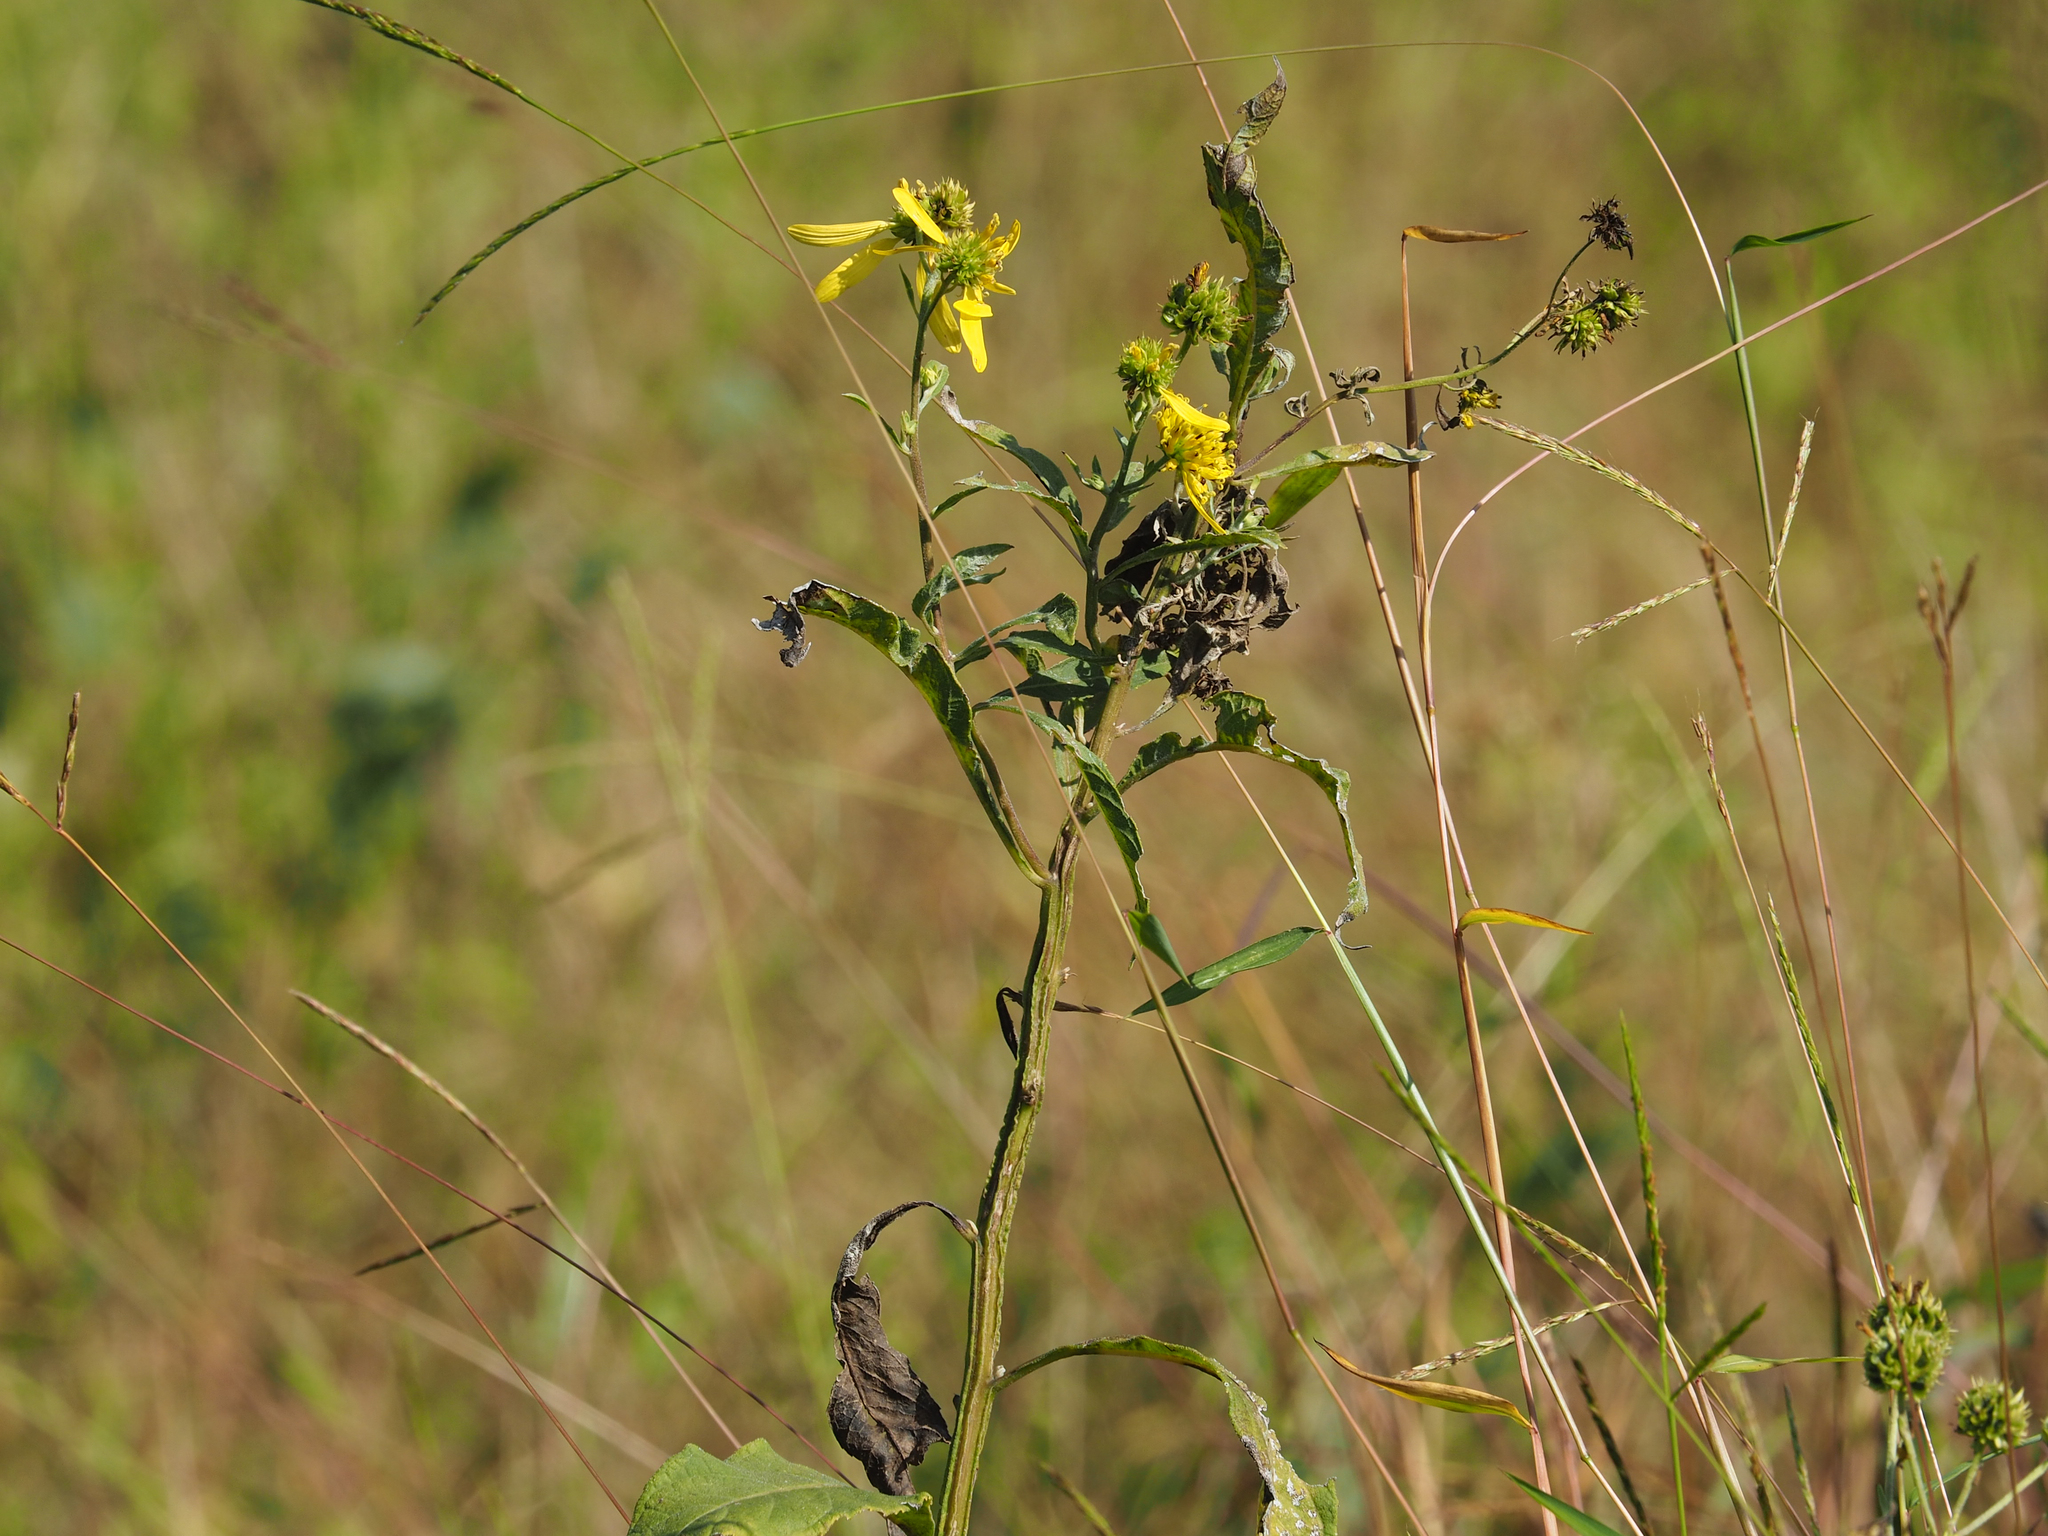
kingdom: Plantae
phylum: Tracheophyta
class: Magnoliopsida
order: Asterales
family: Asteraceae
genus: Verbesina
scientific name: Verbesina alternifolia
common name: Wingstem
